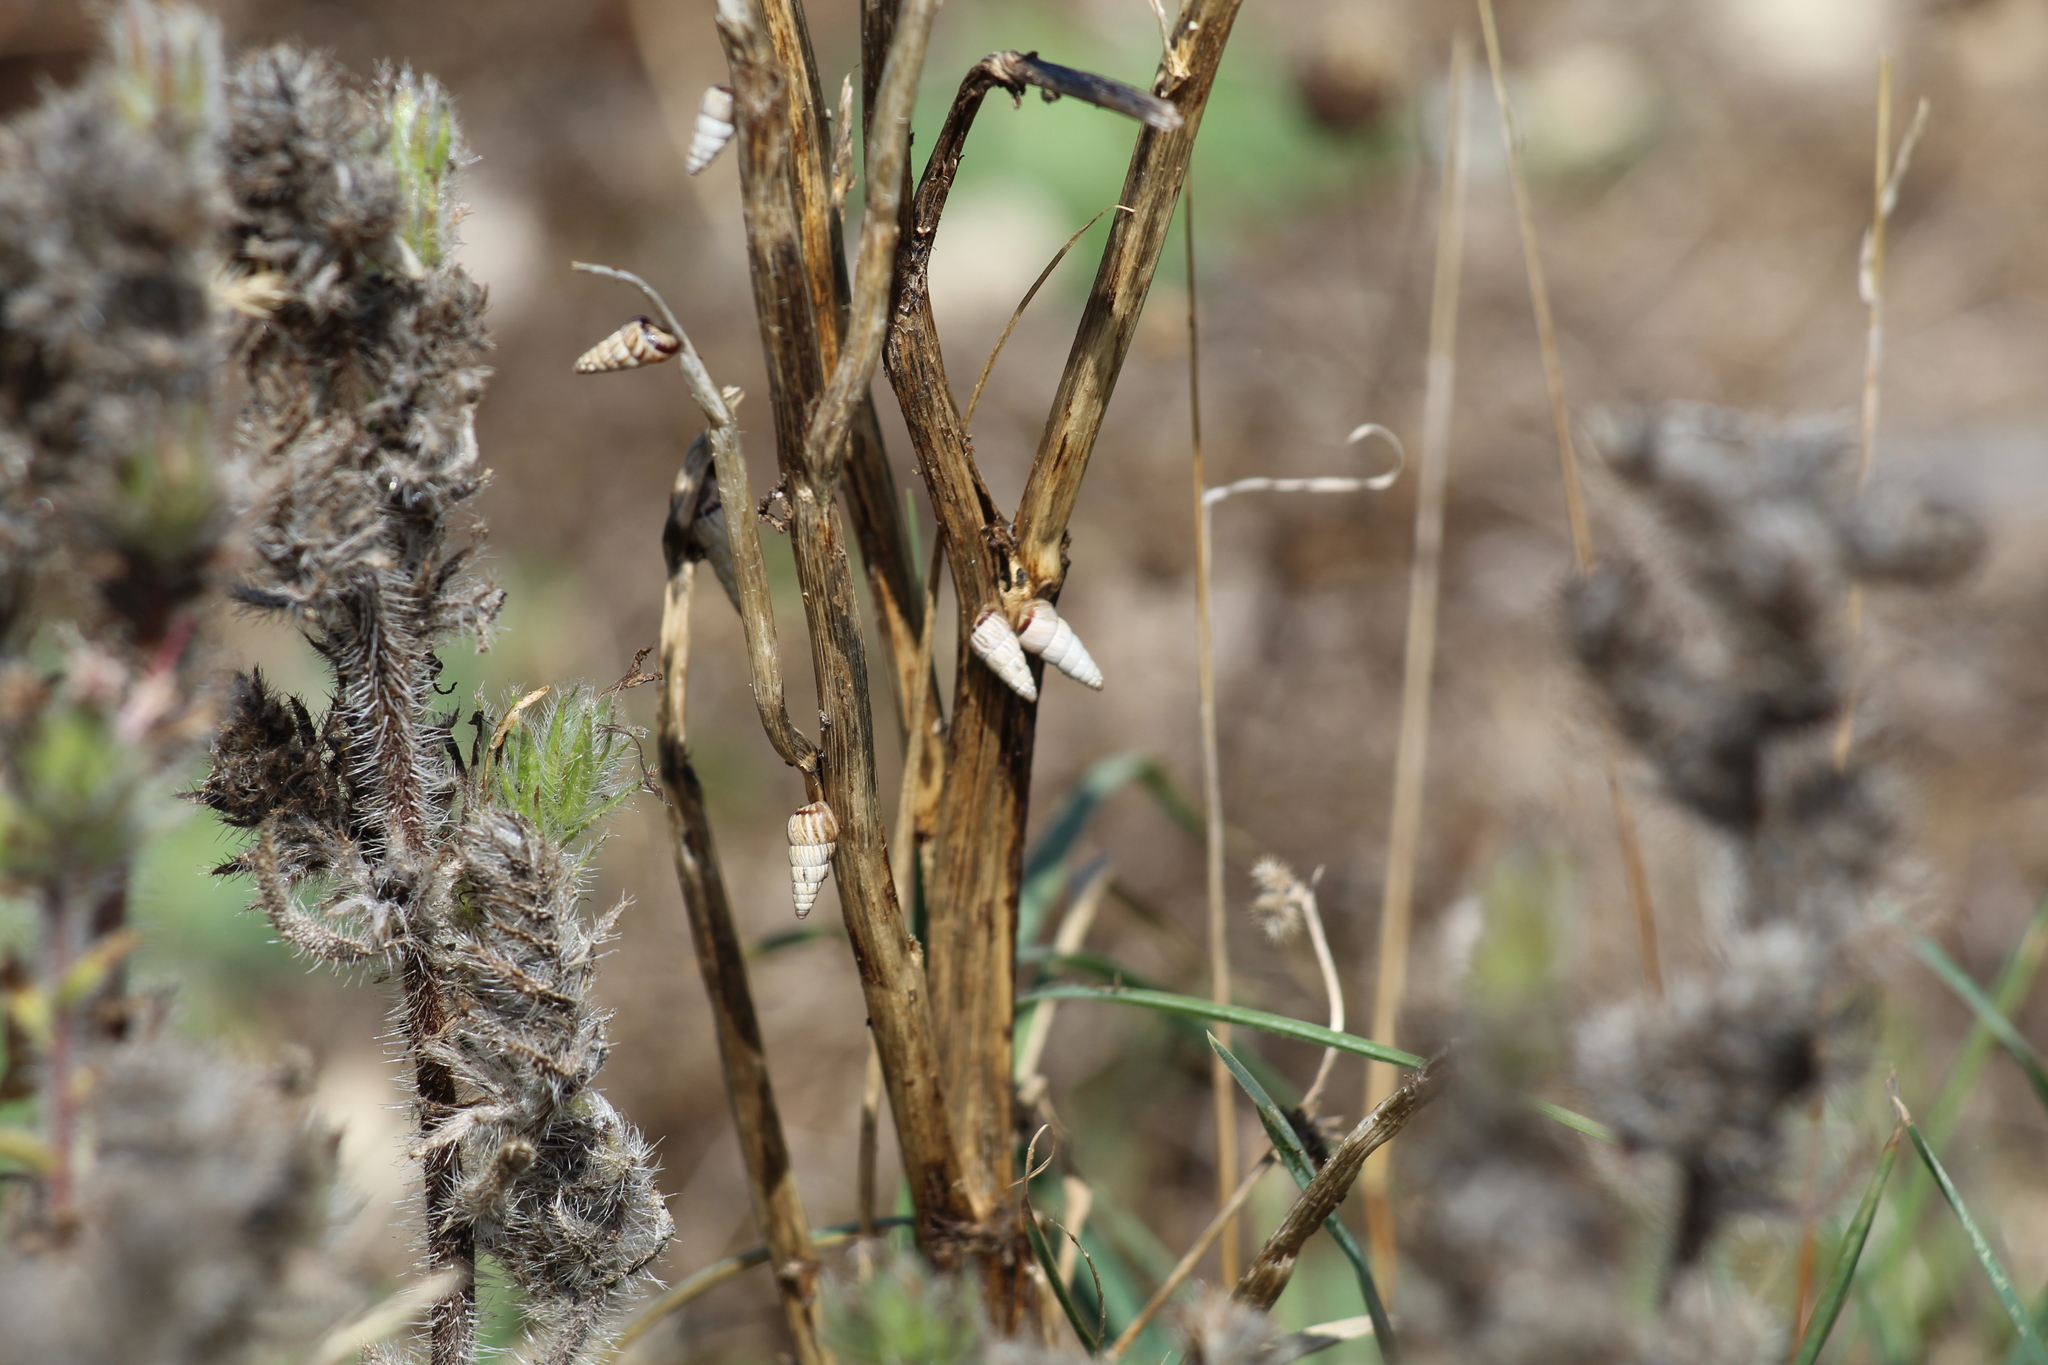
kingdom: Animalia
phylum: Mollusca
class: Gastropoda
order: Stylommatophora
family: Geomitridae
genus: Cochlicella
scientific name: Cochlicella acuta
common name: Pointed snail
